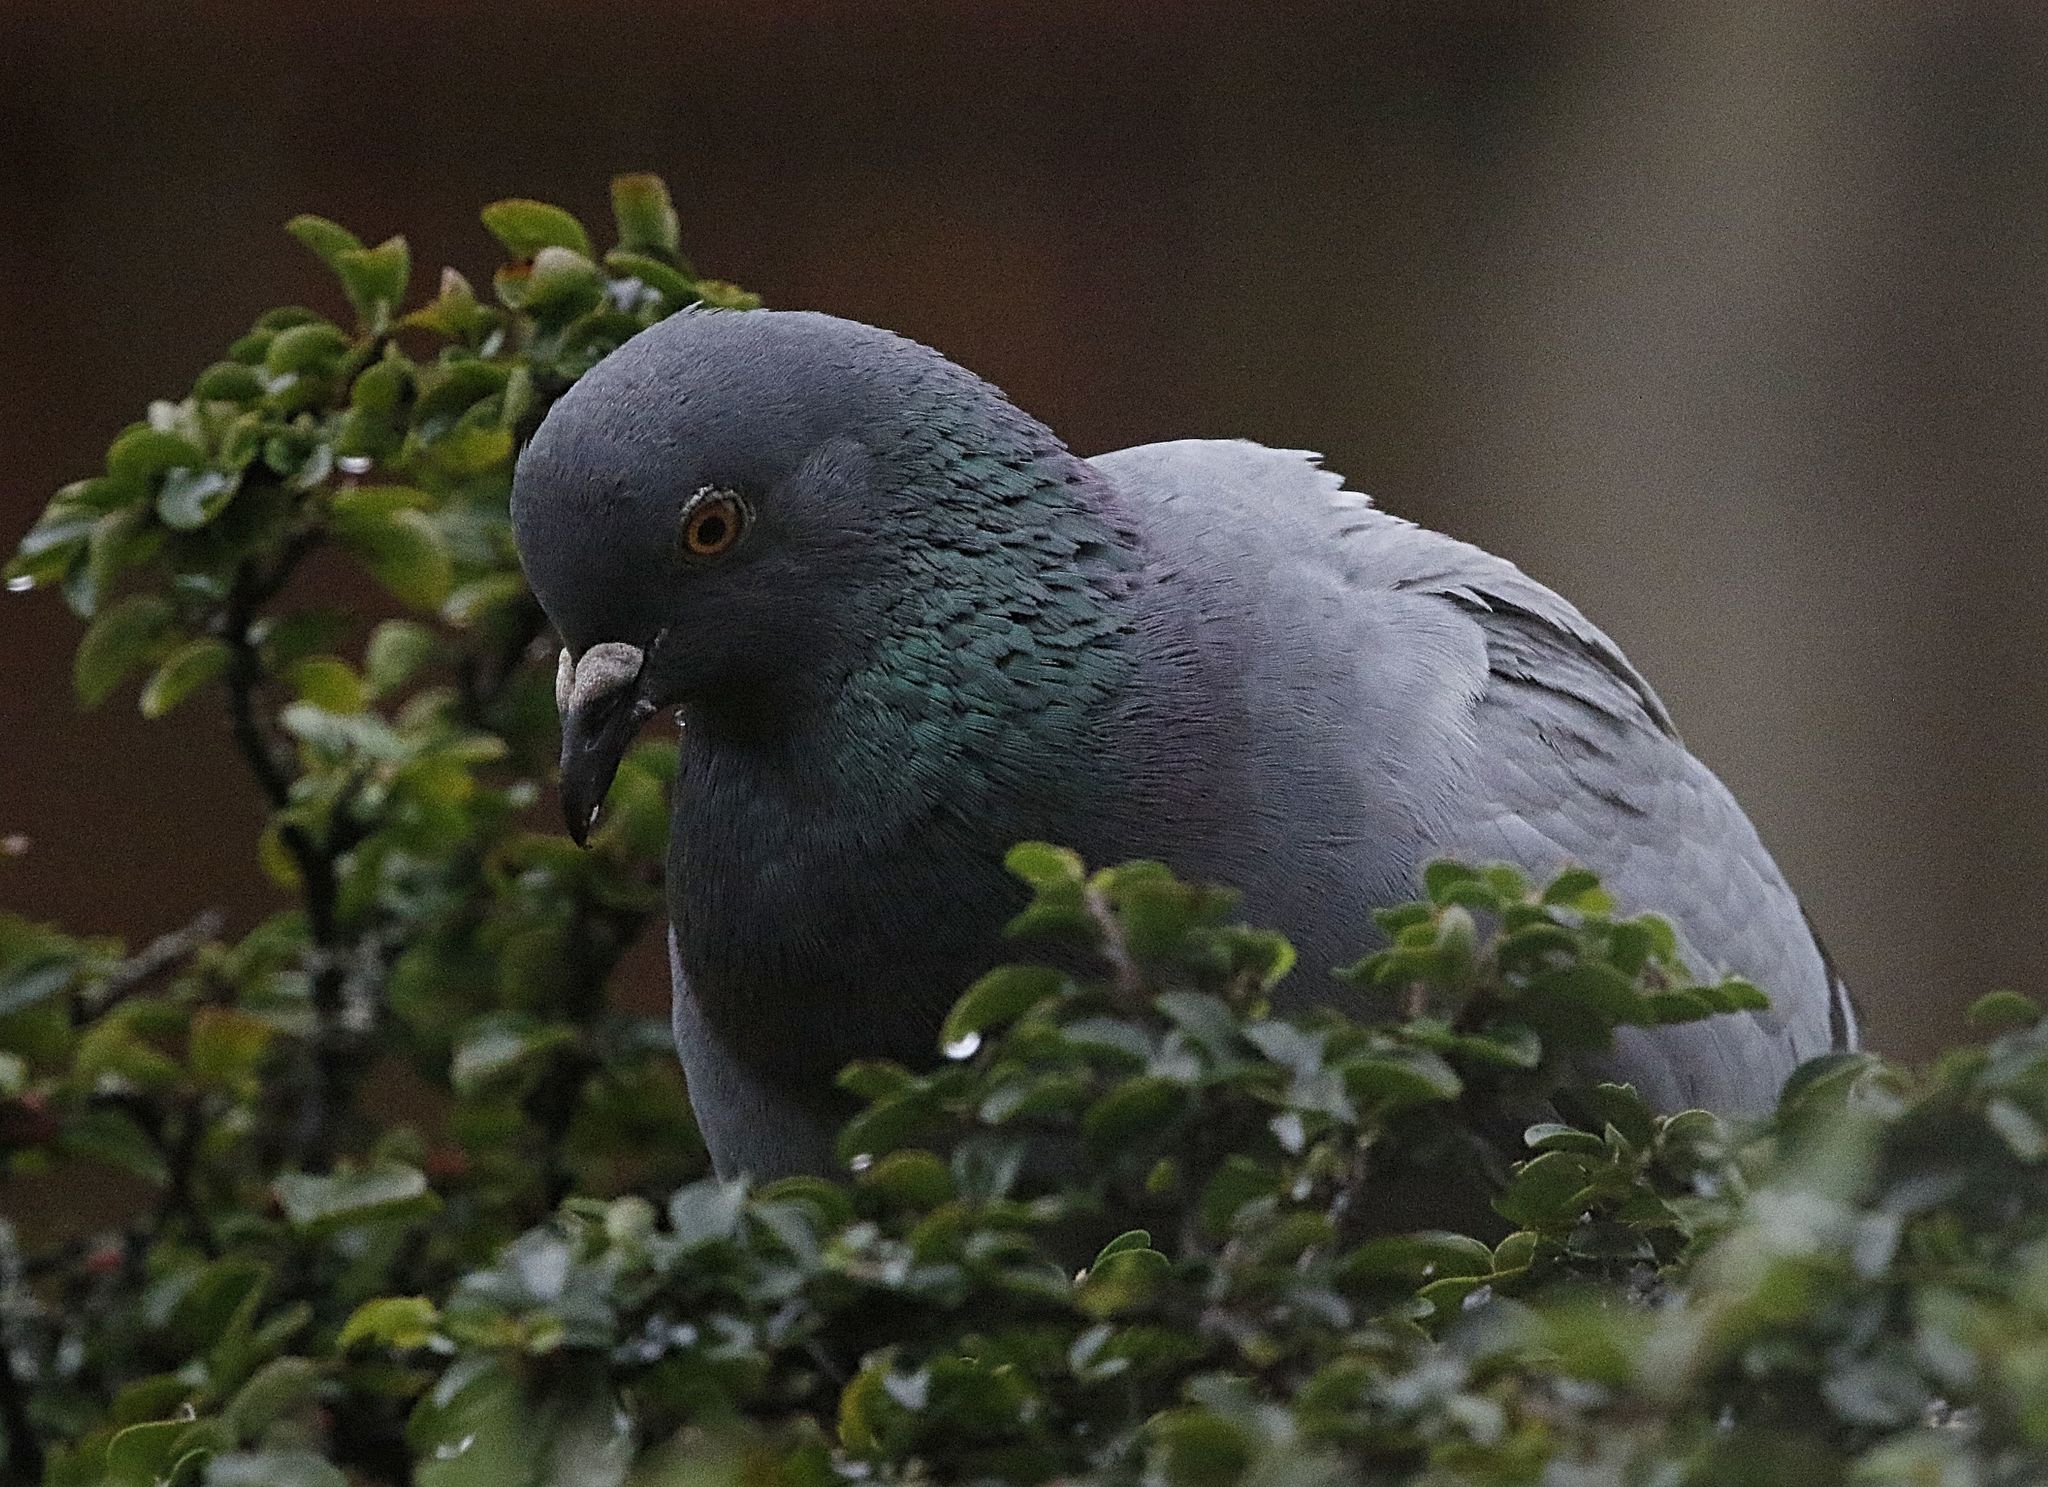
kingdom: Animalia
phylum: Chordata
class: Aves
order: Columbiformes
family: Columbidae
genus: Columba
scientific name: Columba livia
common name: Rock pigeon
